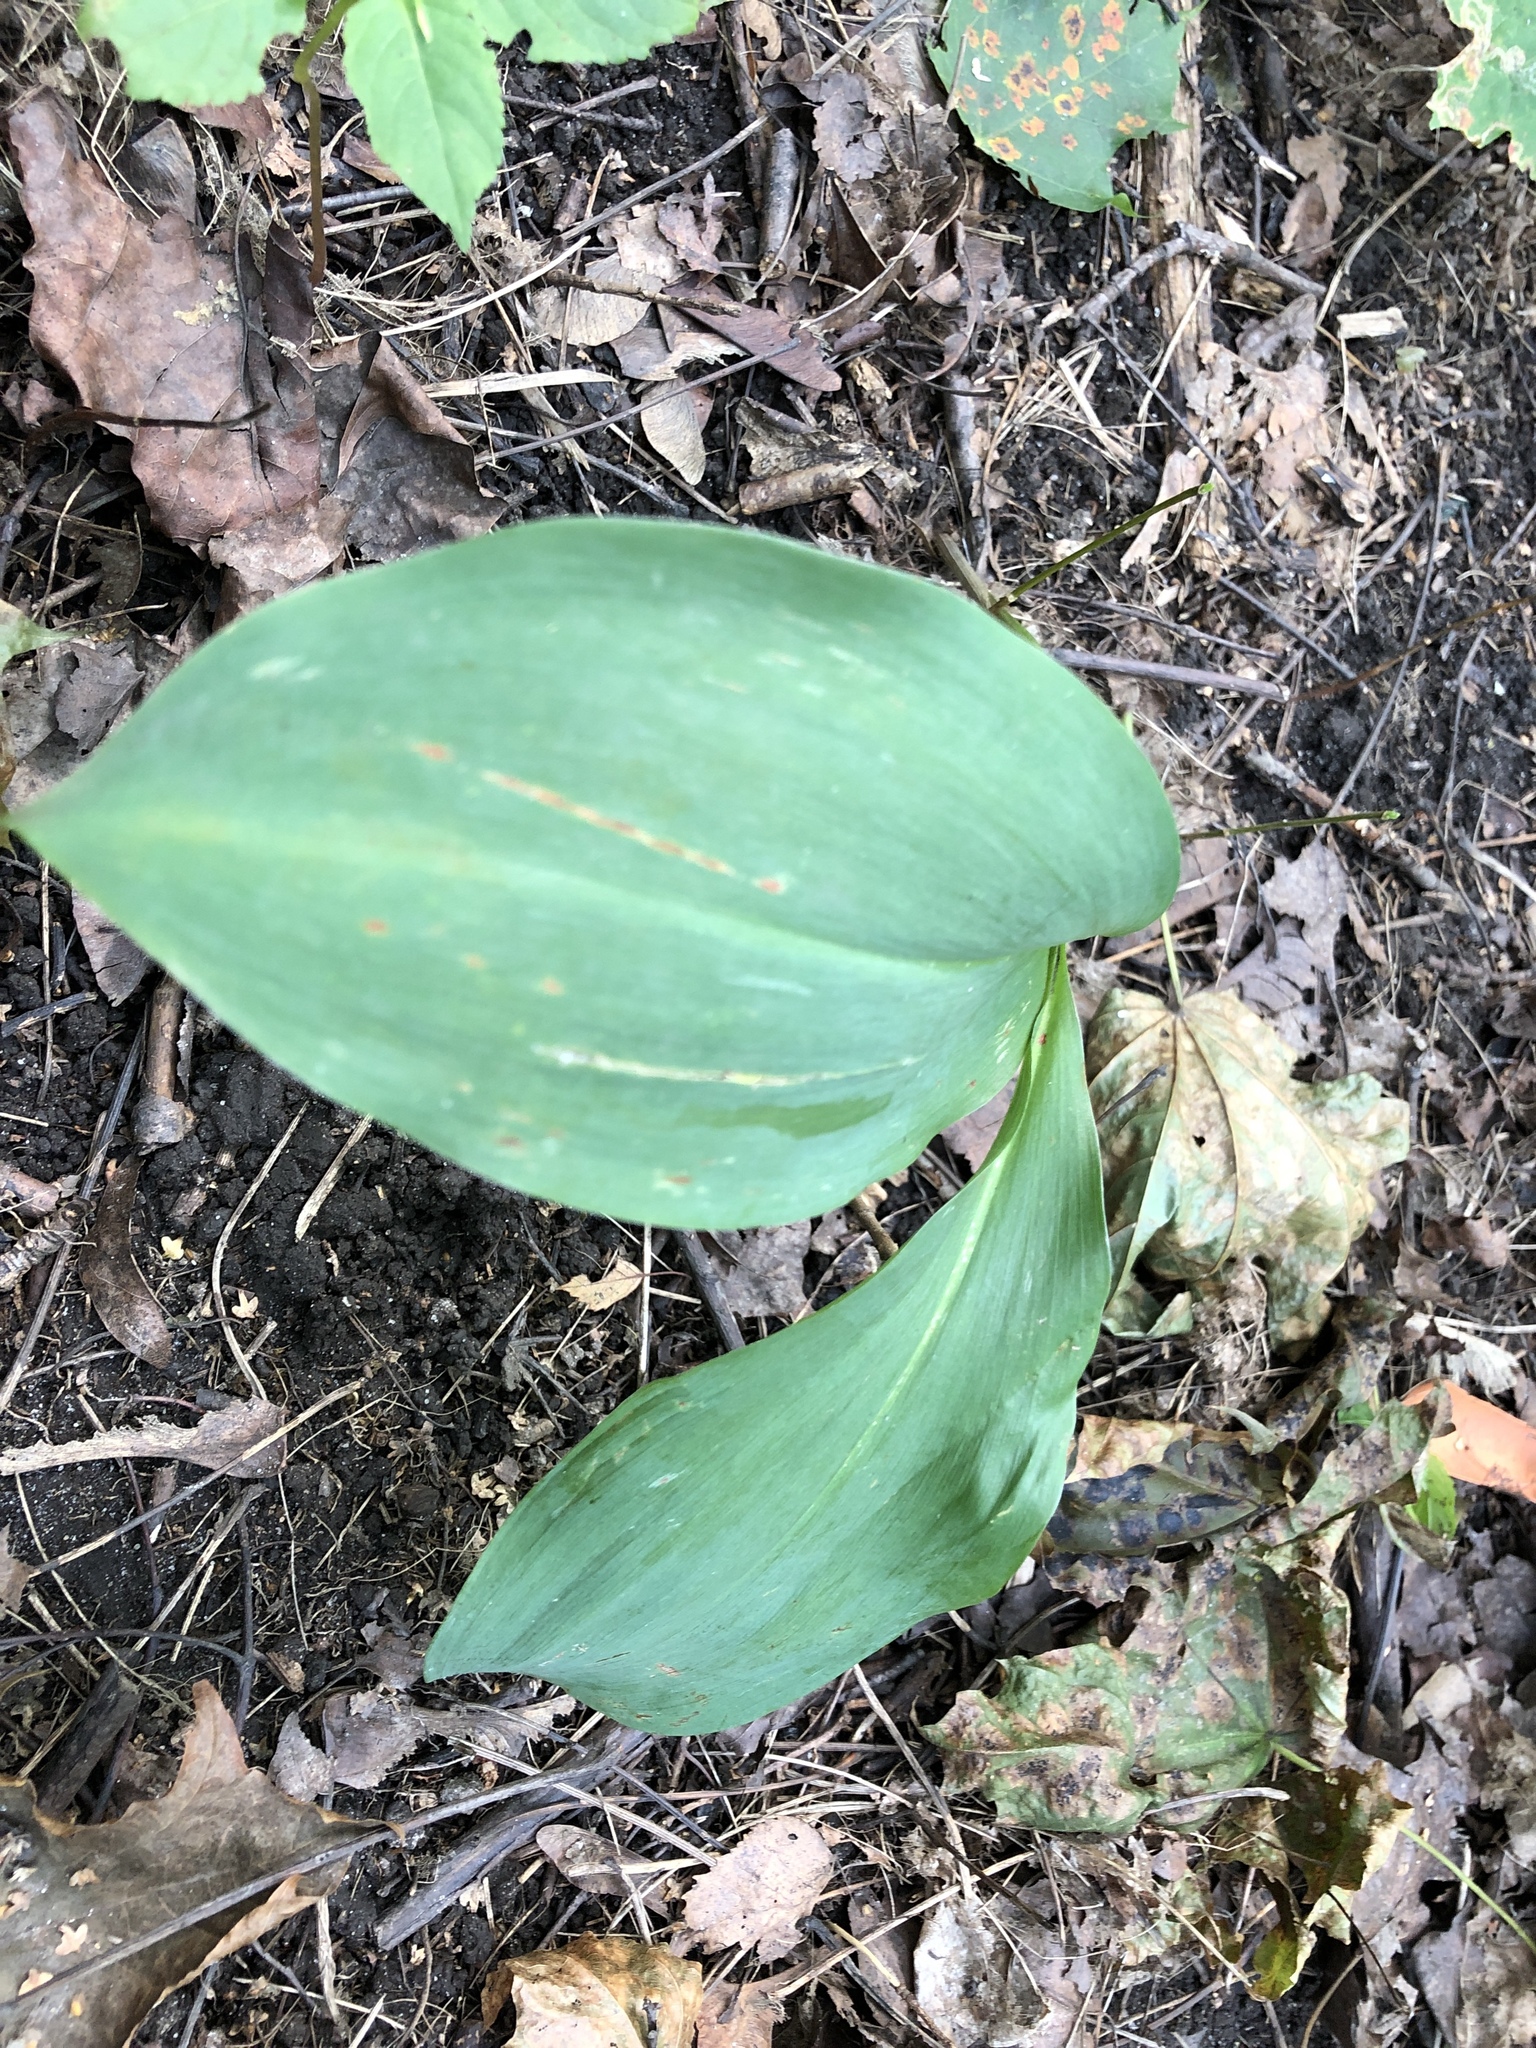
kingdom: Plantae
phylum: Tracheophyta
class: Liliopsida
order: Asparagales
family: Asparagaceae
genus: Convallaria
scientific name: Convallaria majalis
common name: Lily-of-the-valley
